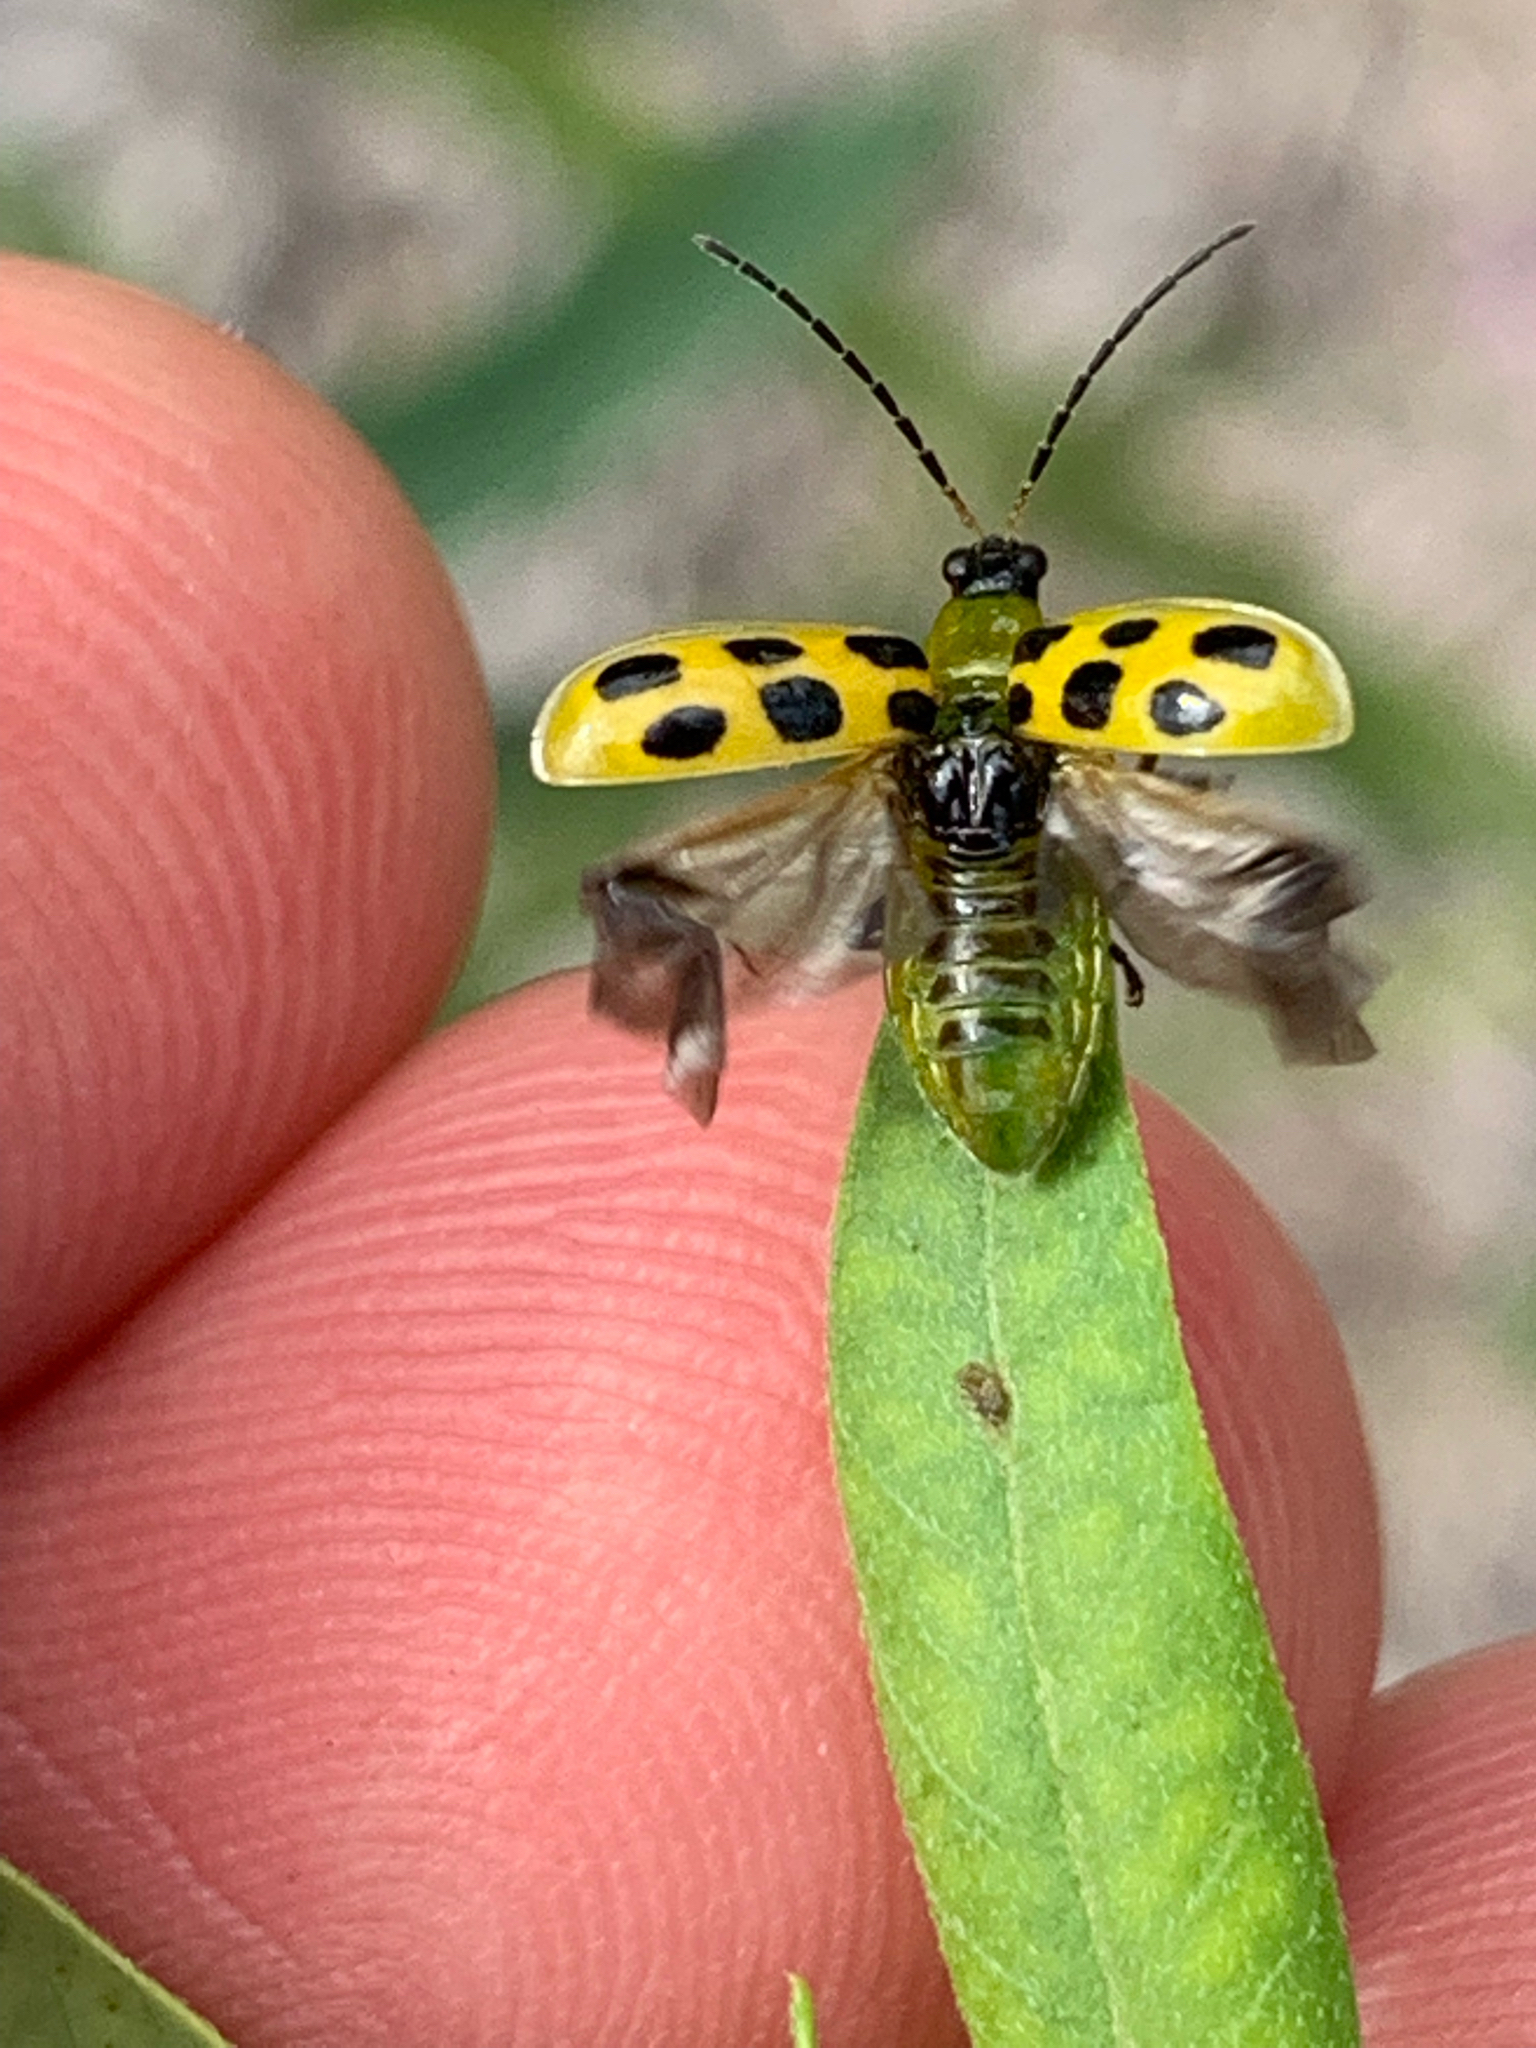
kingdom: Animalia
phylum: Arthropoda
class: Insecta
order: Coleoptera
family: Chrysomelidae
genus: Diabrotica
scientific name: Diabrotica undecimpunctata
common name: Spotted cucumber beetle
